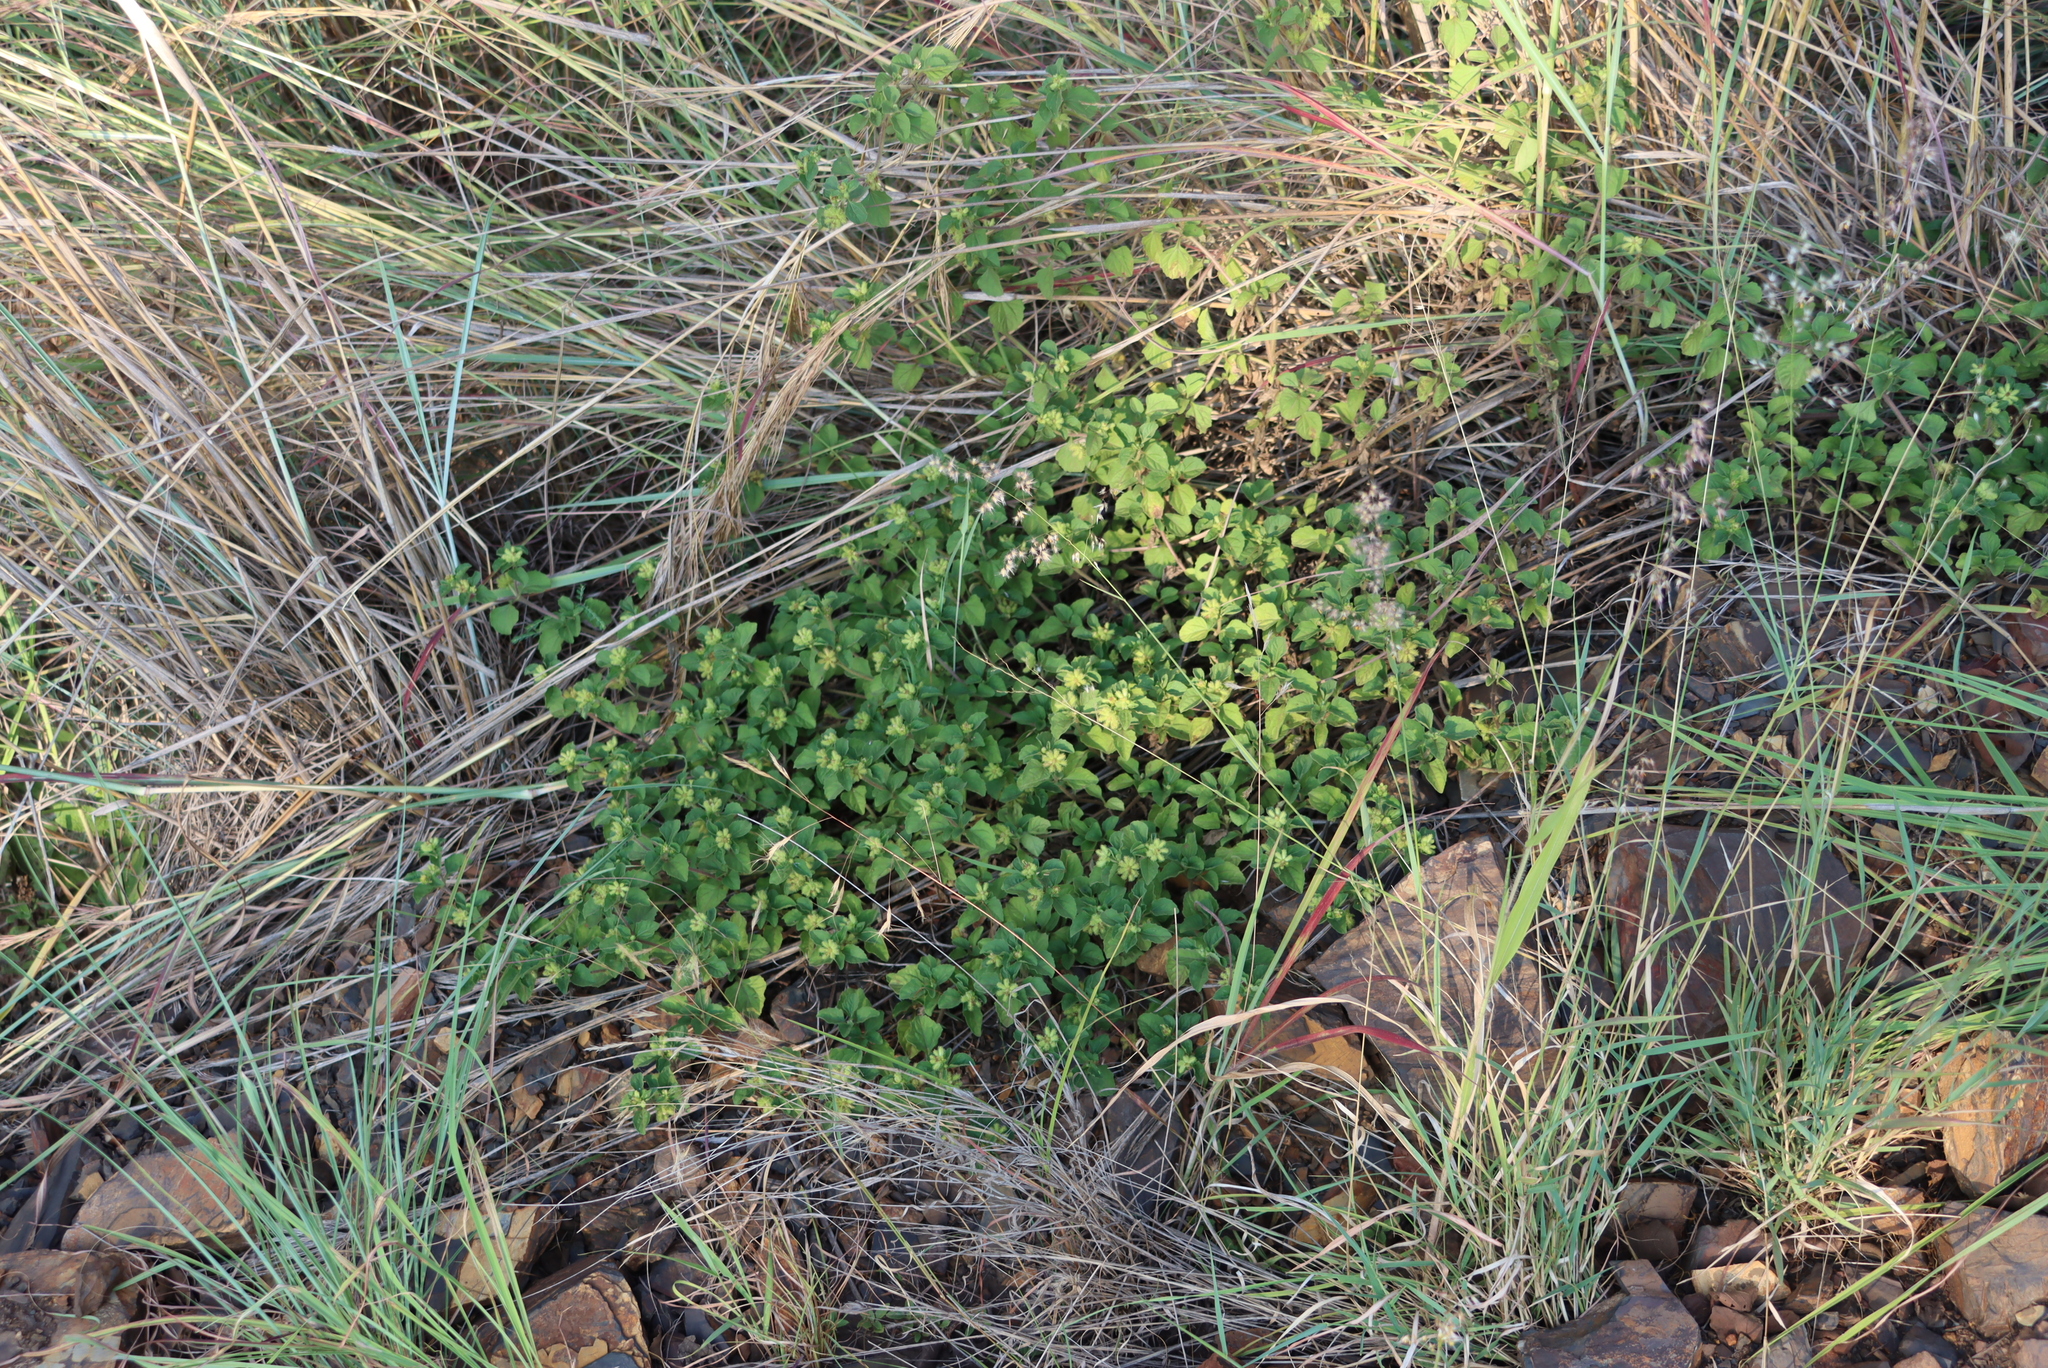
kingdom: Plantae
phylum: Tracheophyta
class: Magnoliopsida
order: Asterales
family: Asteraceae
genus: Acanthospermum
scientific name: Acanthospermum australe
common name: Paraguayan starbur
